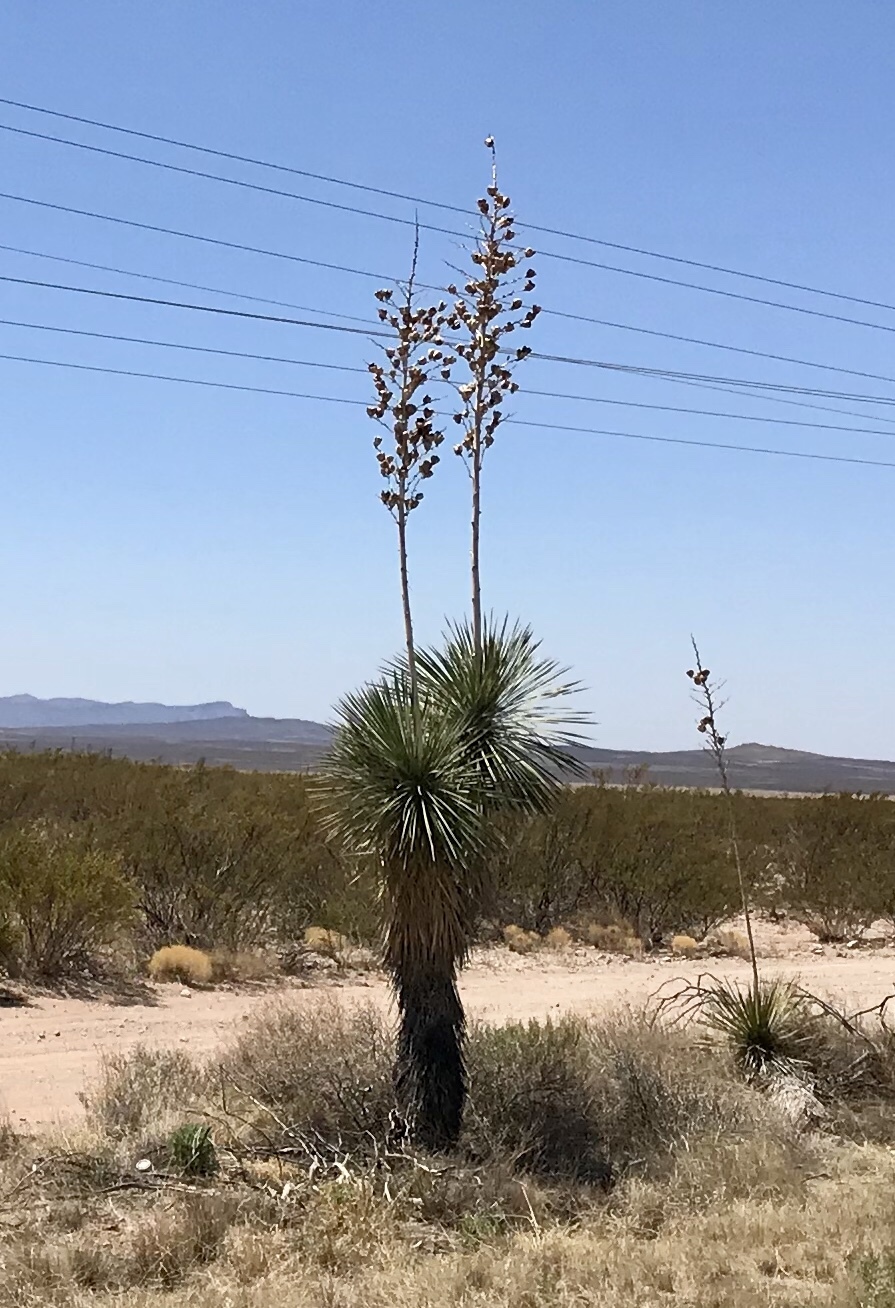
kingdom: Plantae
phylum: Tracheophyta
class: Liliopsida
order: Asparagales
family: Asparagaceae
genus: Yucca
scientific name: Yucca elata
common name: Palmella
